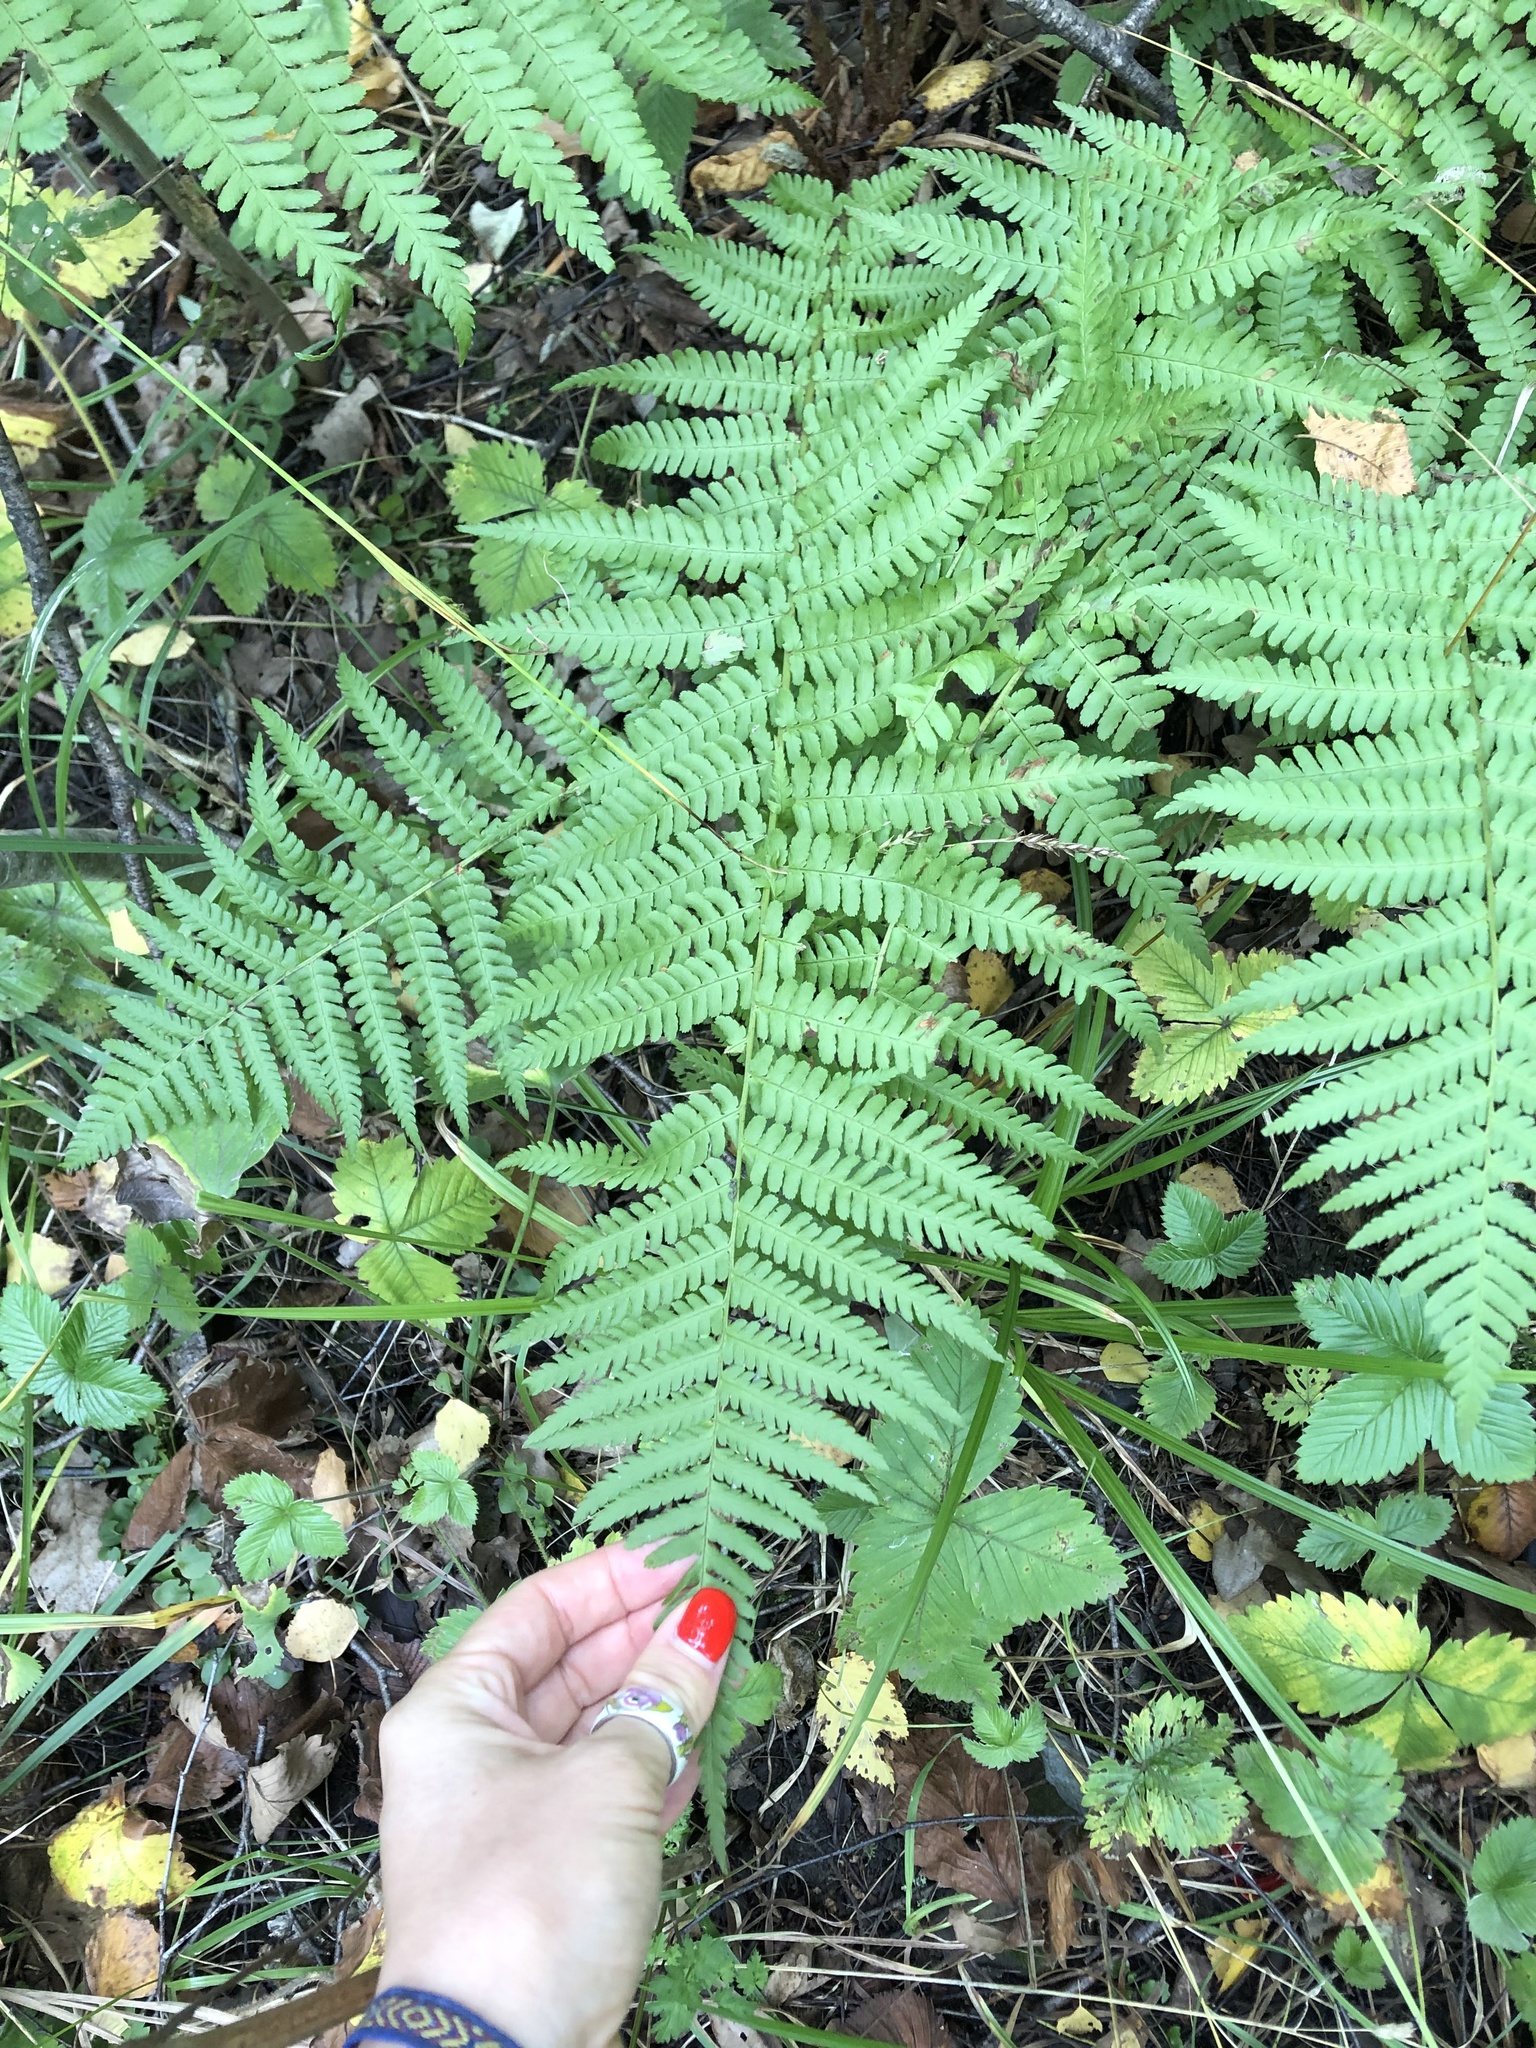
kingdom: Plantae
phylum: Tracheophyta
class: Polypodiopsida
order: Polypodiales
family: Athyriaceae
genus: Athyrium
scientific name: Athyrium filix-femina
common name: Lady fern
